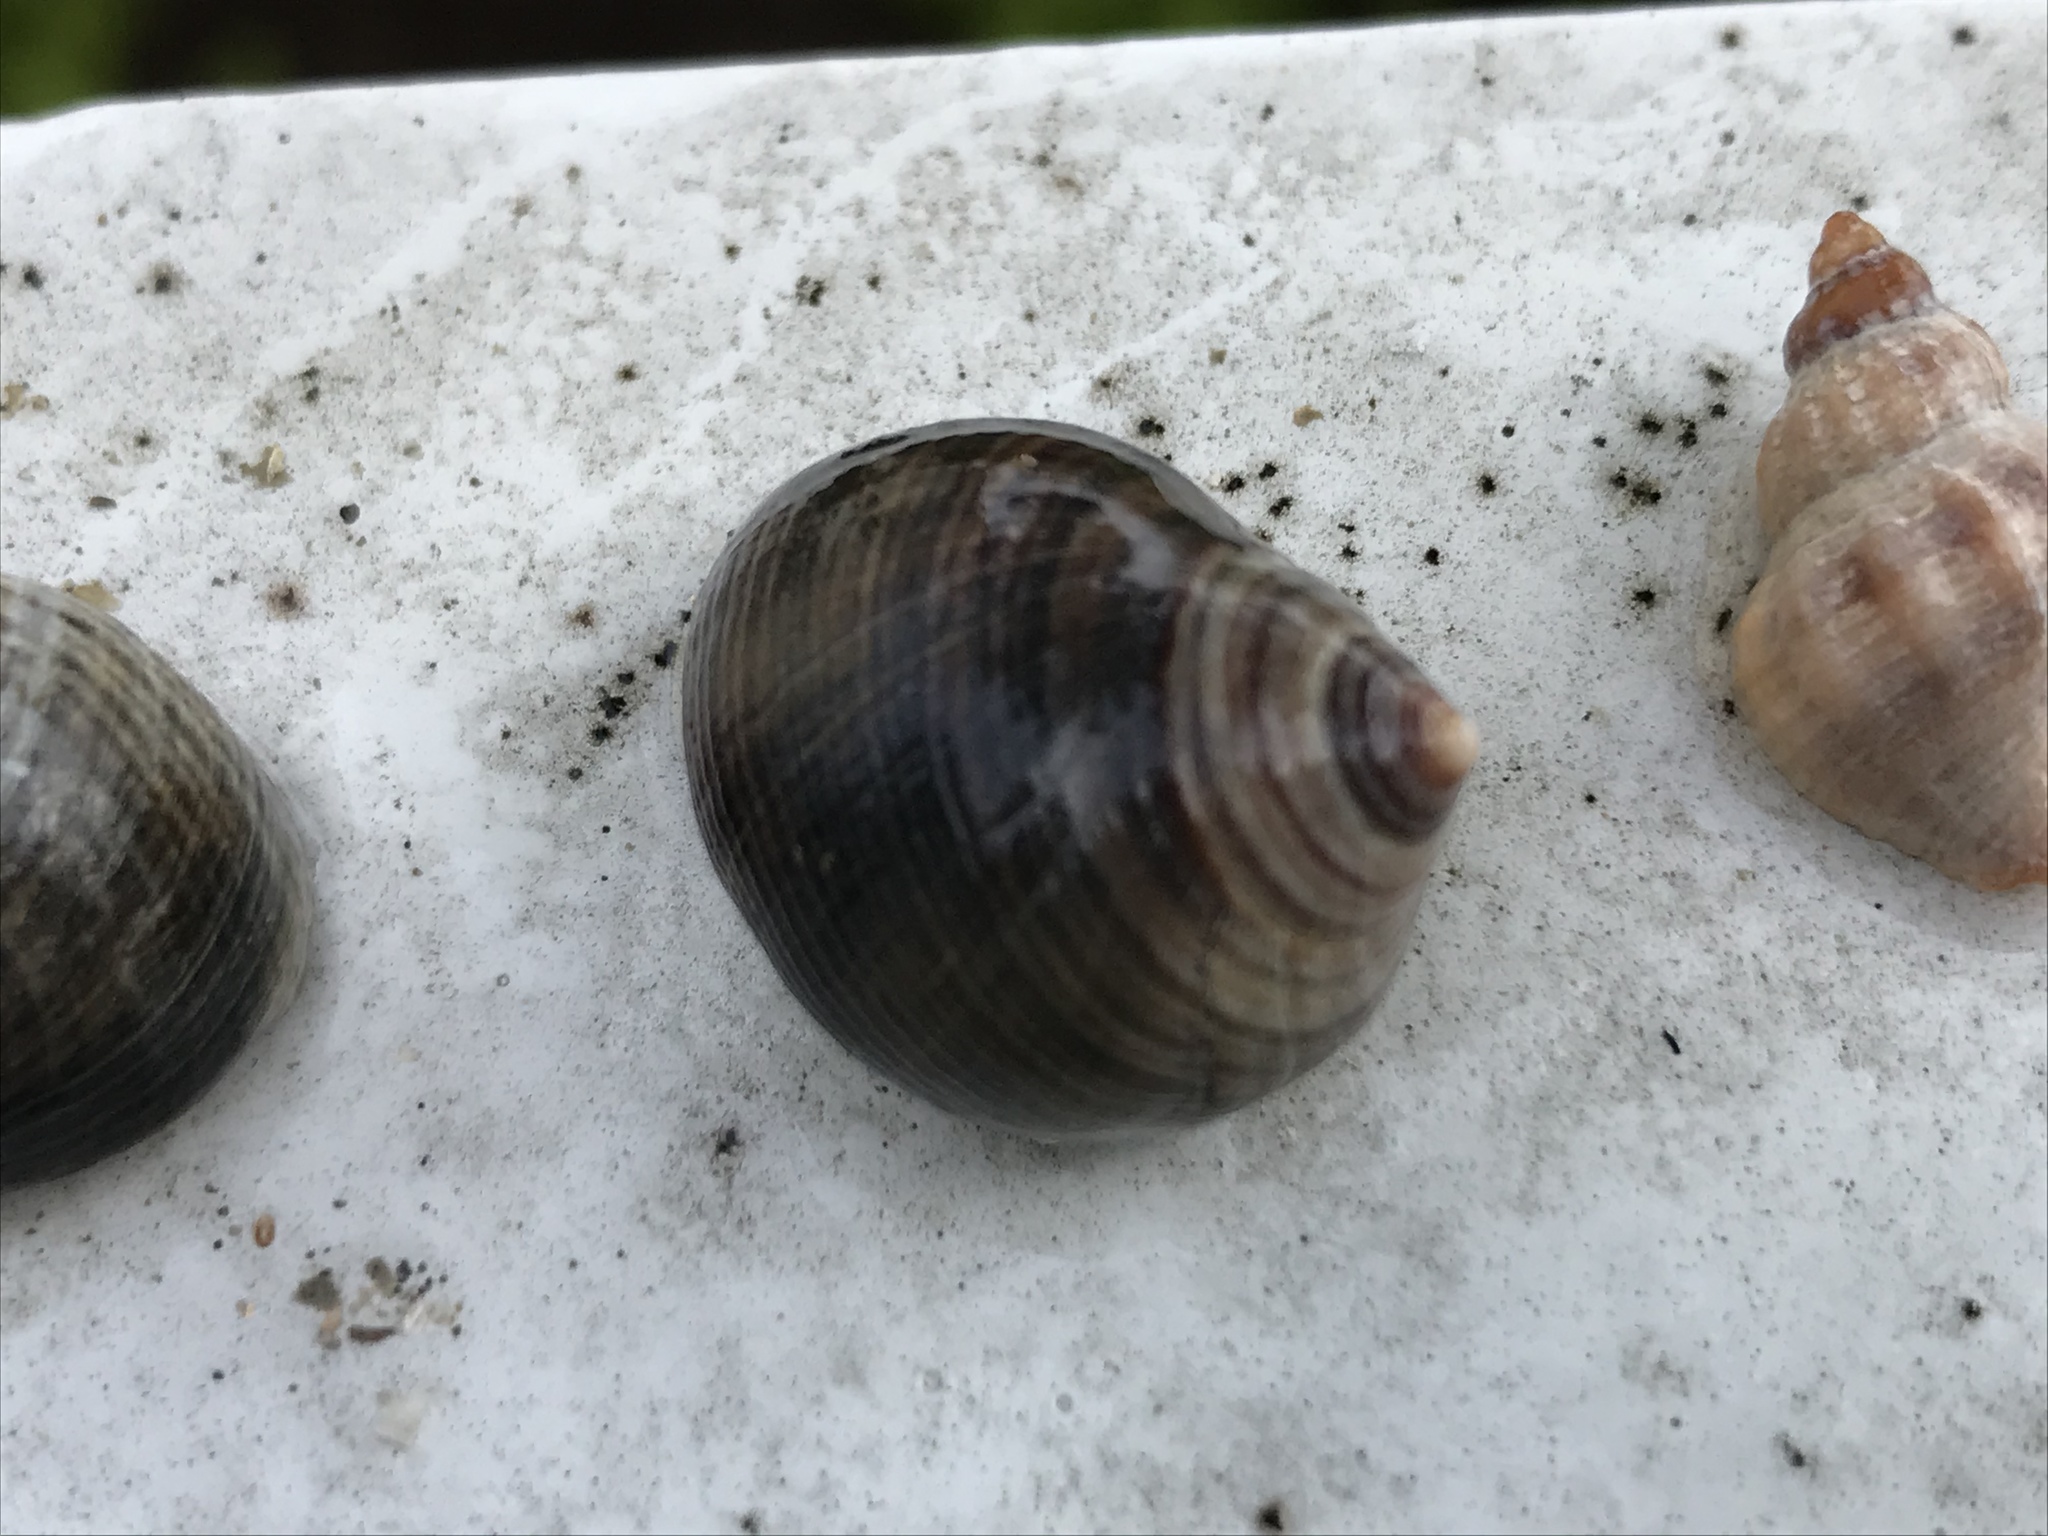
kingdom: Animalia
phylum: Mollusca
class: Gastropoda
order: Littorinimorpha
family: Littorinidae
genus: Littorina
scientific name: Littorina littorea
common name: Common periwinkle
